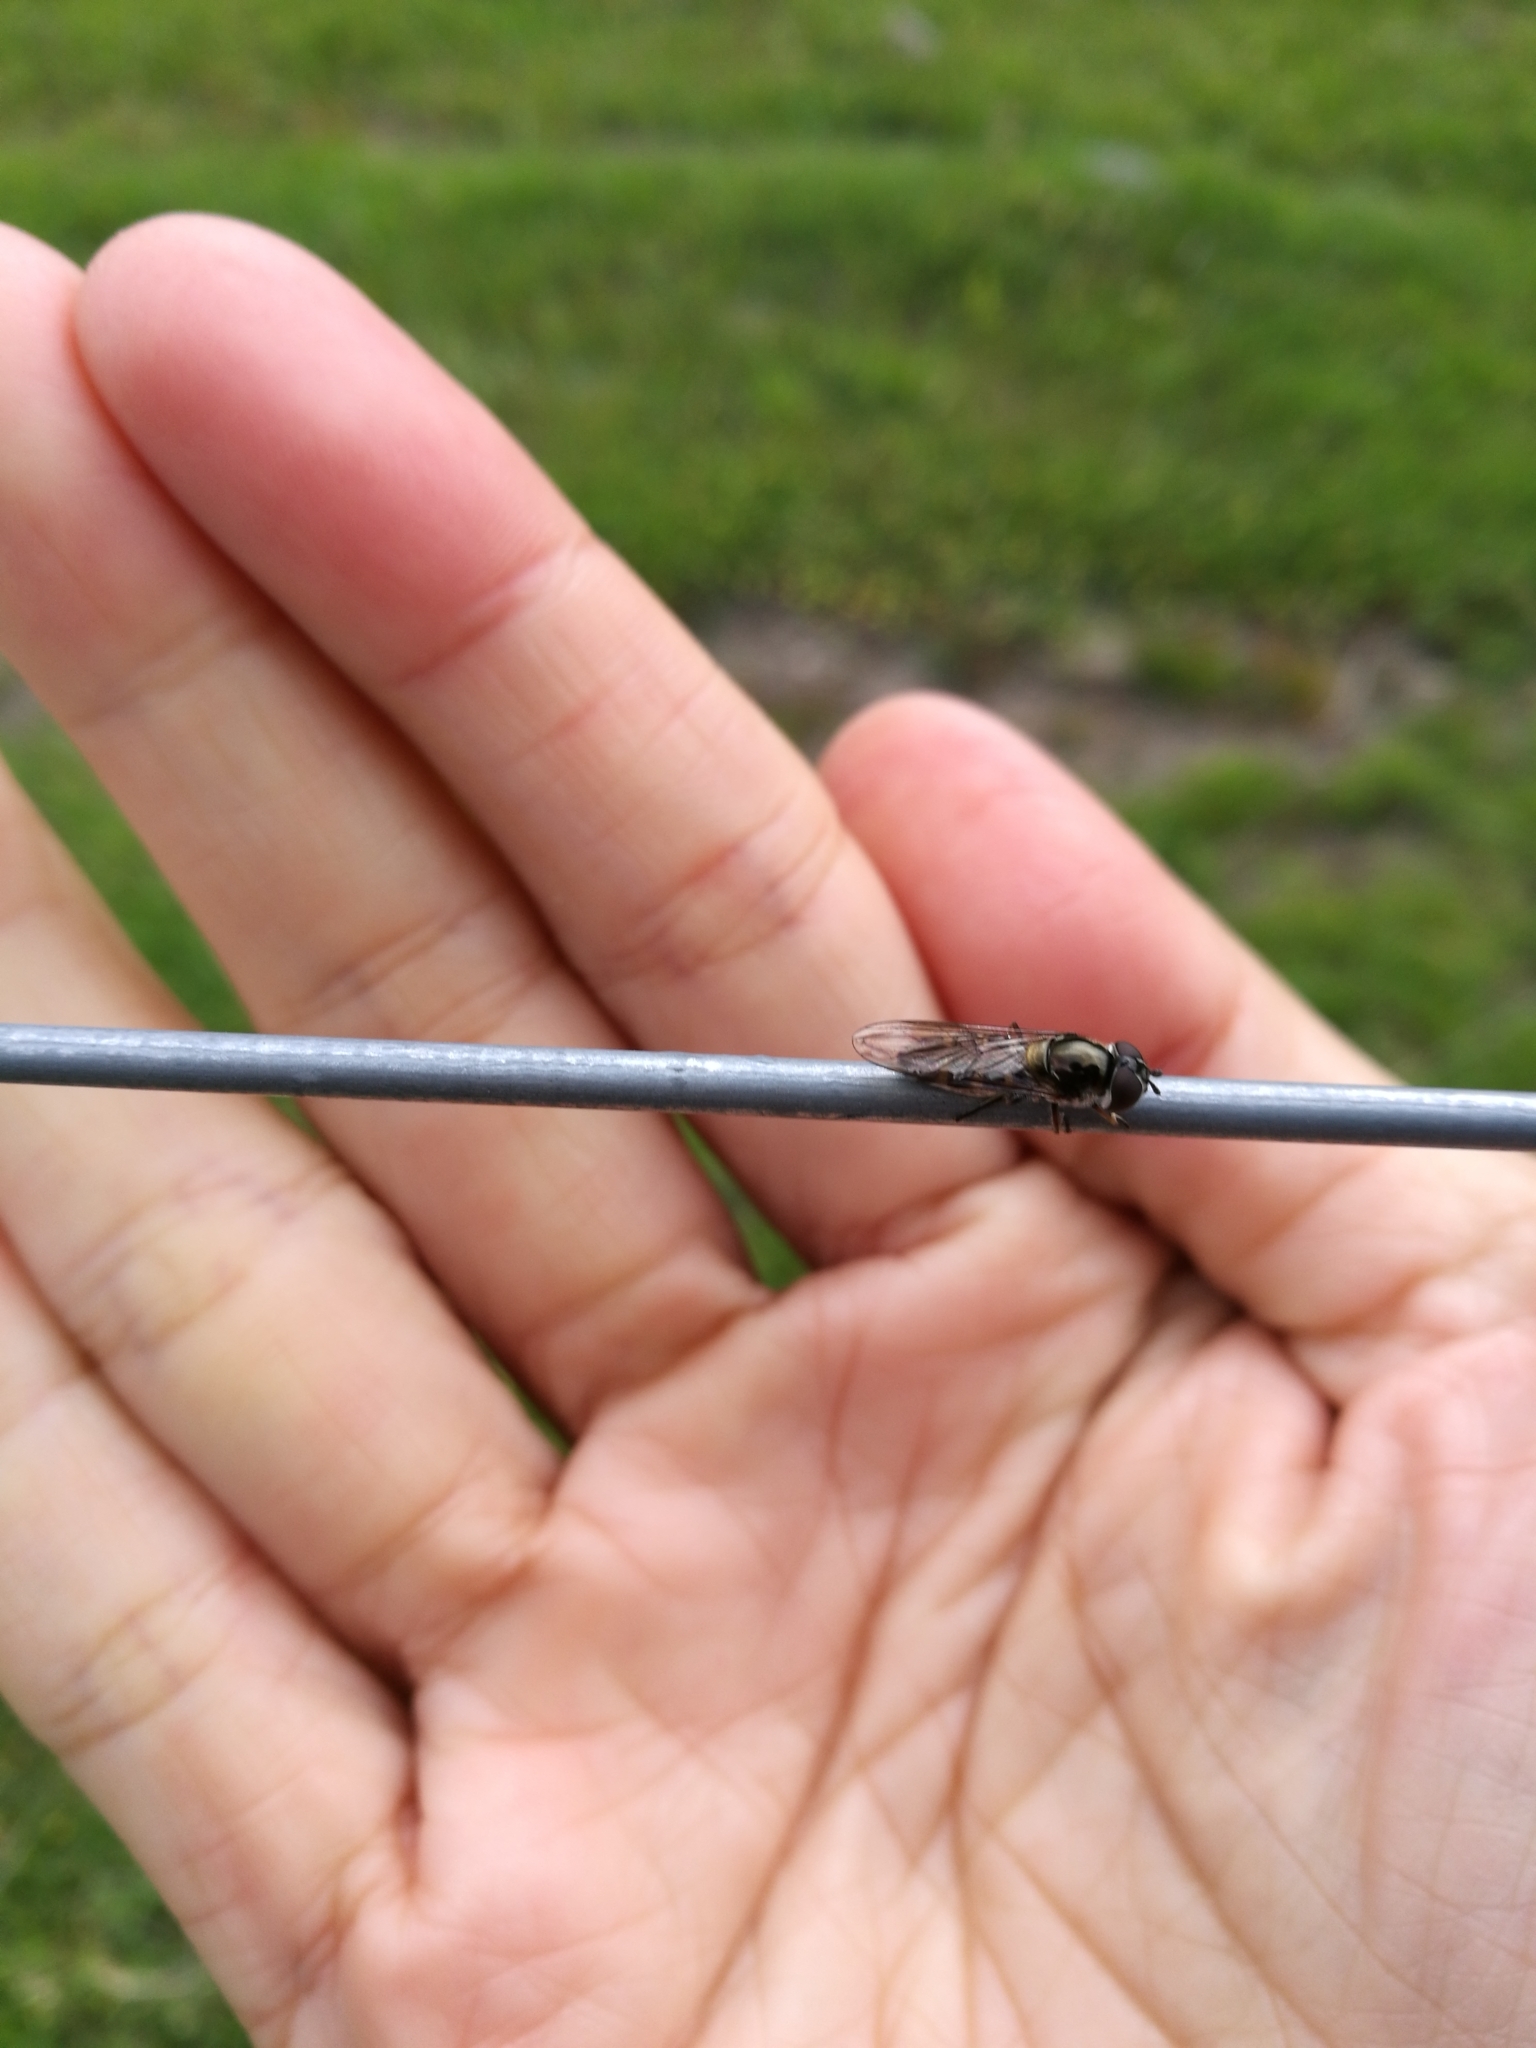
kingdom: Animalia
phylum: Arthropoda
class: Insecta
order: Diptera
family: Syrphidae
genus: Melangyna
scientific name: Melangyna novaezelandiae
